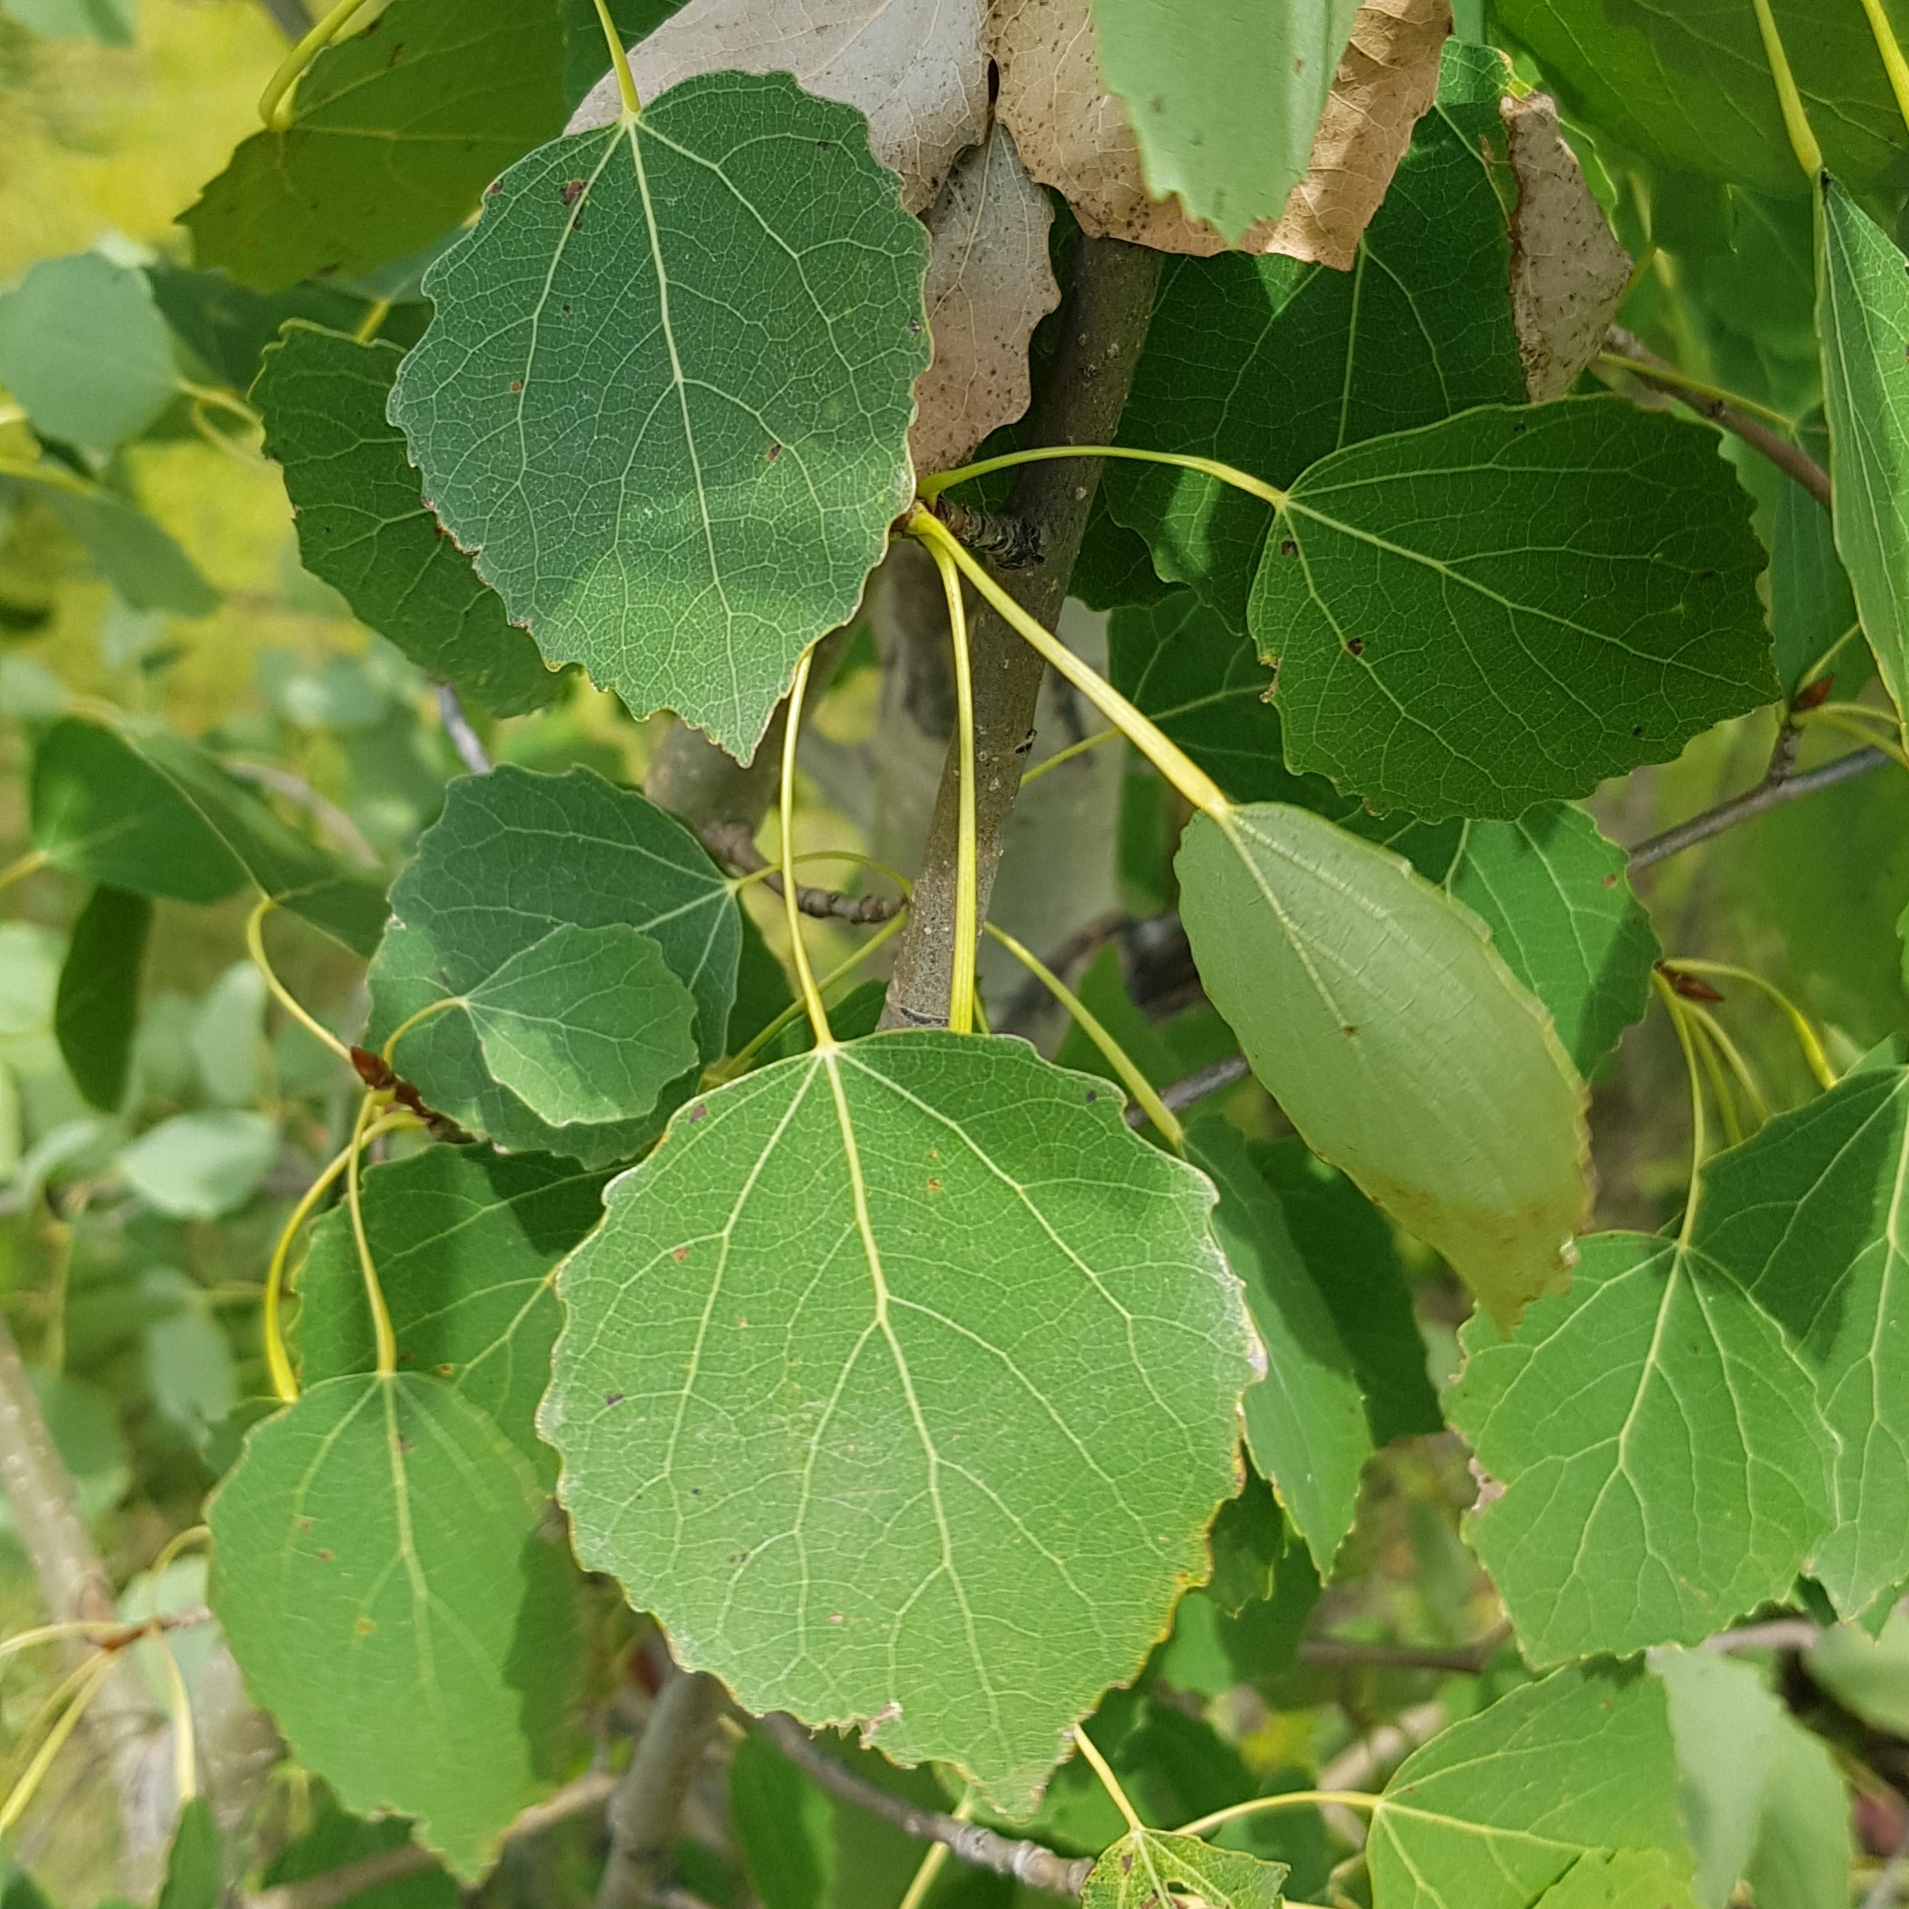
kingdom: Plantae
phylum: Tracheophyta
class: Magnoliopsida
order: Asterales
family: Asteraceae
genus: Pentanema
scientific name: Pentanema britannicum
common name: British elecampane
